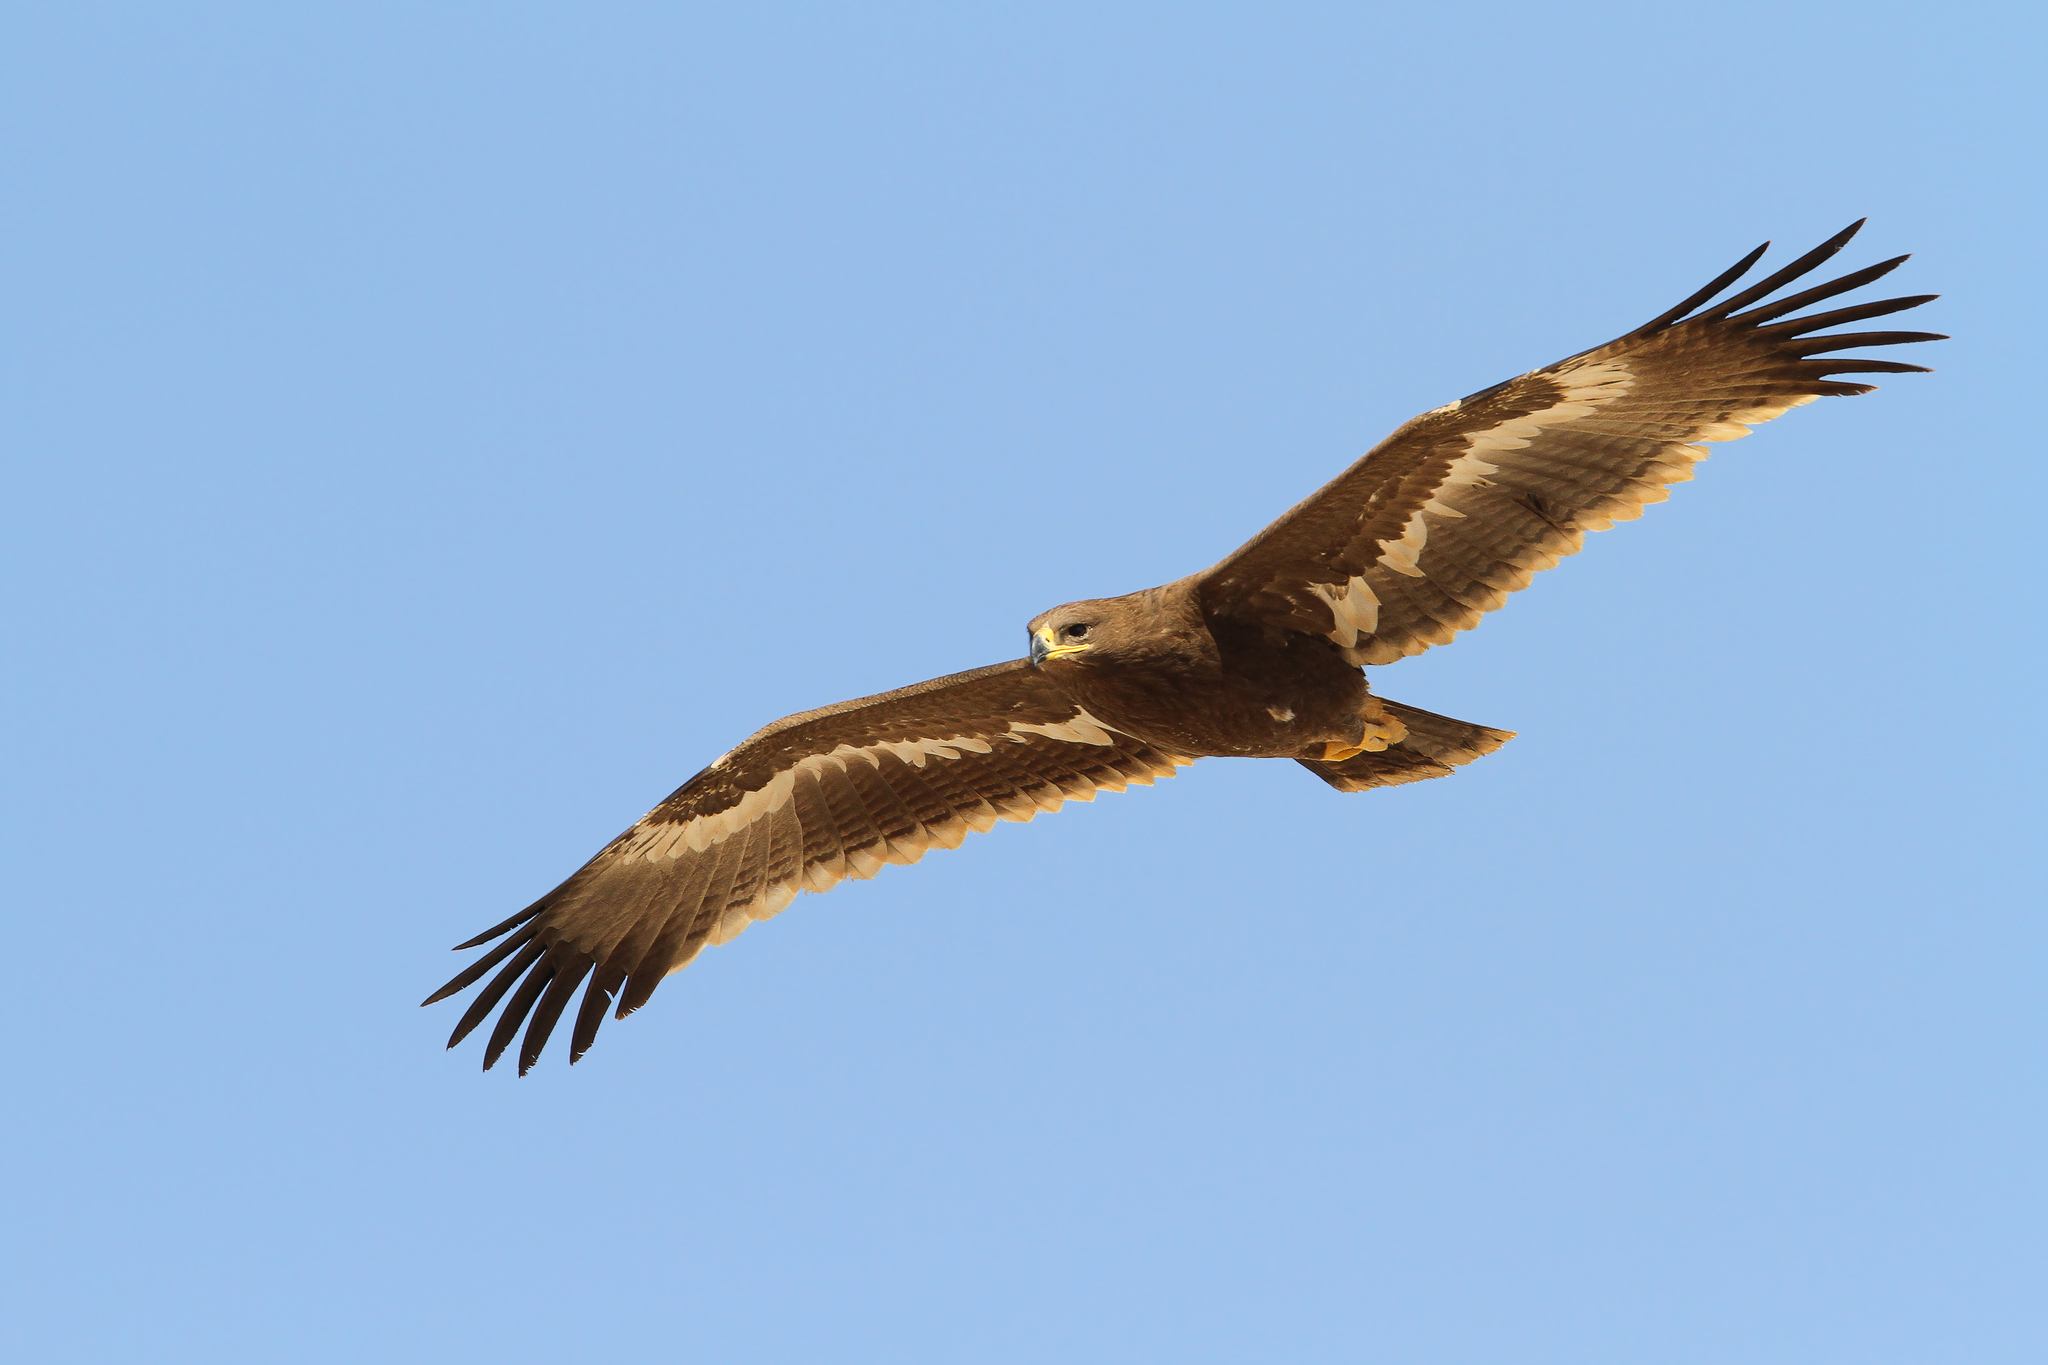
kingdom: Animalia
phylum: Chordata
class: Aves
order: Accipitriformes
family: Accipitridae
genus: Aquila
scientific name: Aquila nipalensis
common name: Steppe eagle
